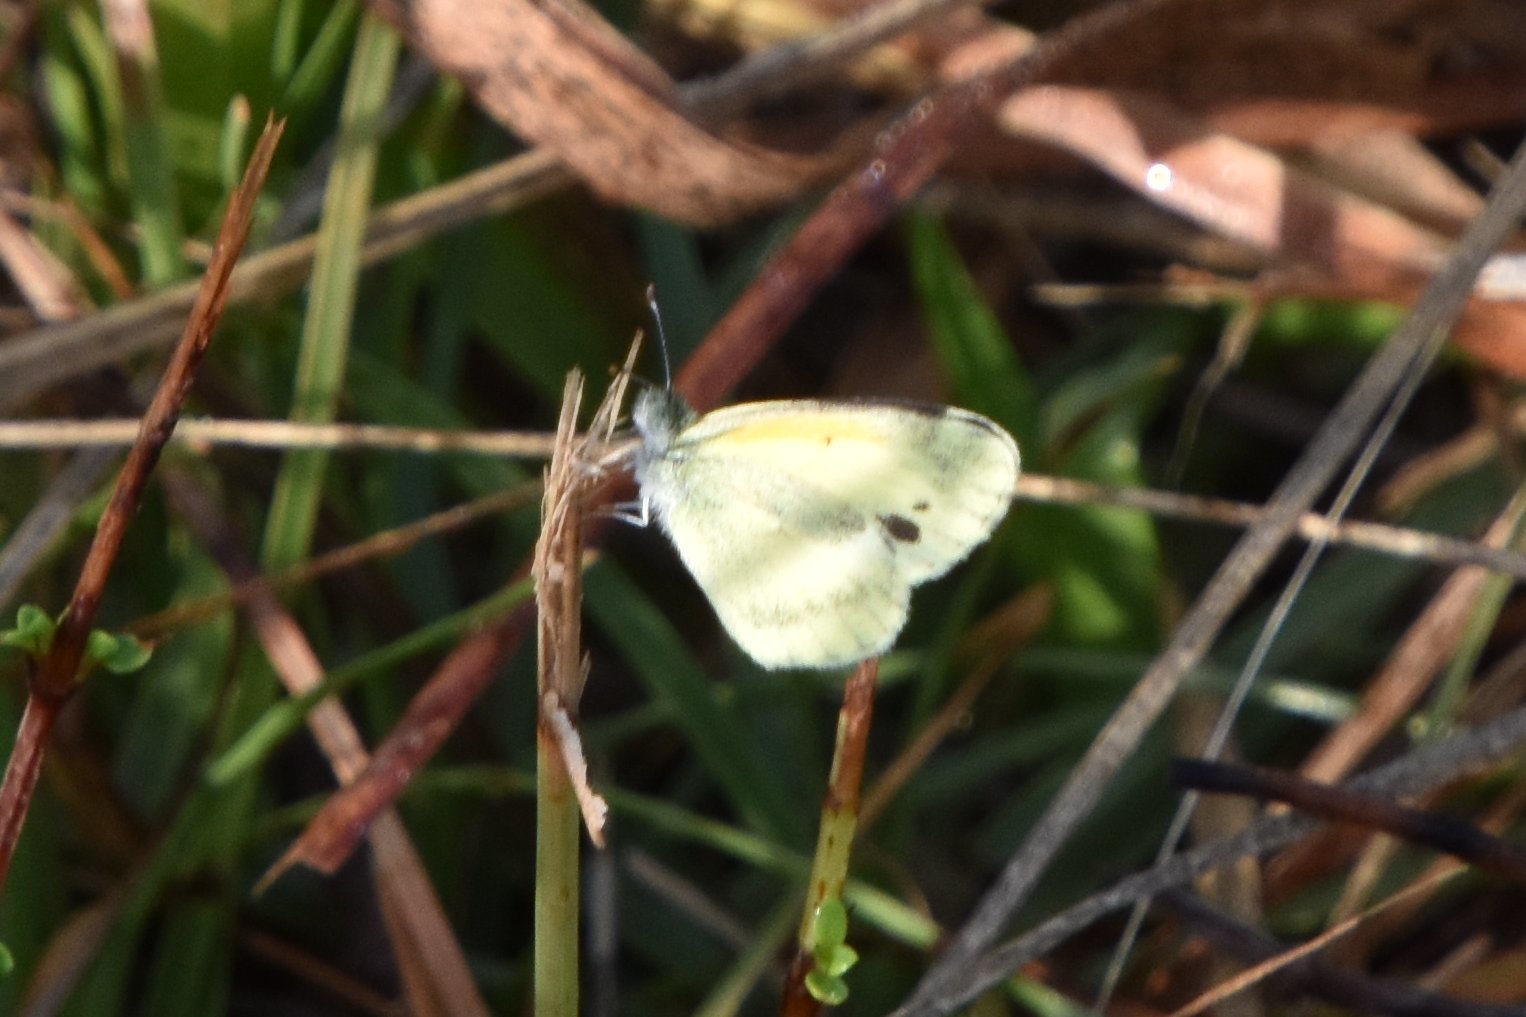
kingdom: Animalia
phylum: Arthropoda
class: Insecta
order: Lepidoptera
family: Pieridae
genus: Nathalis
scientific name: Nathalis iole
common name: Dainty sulphur
